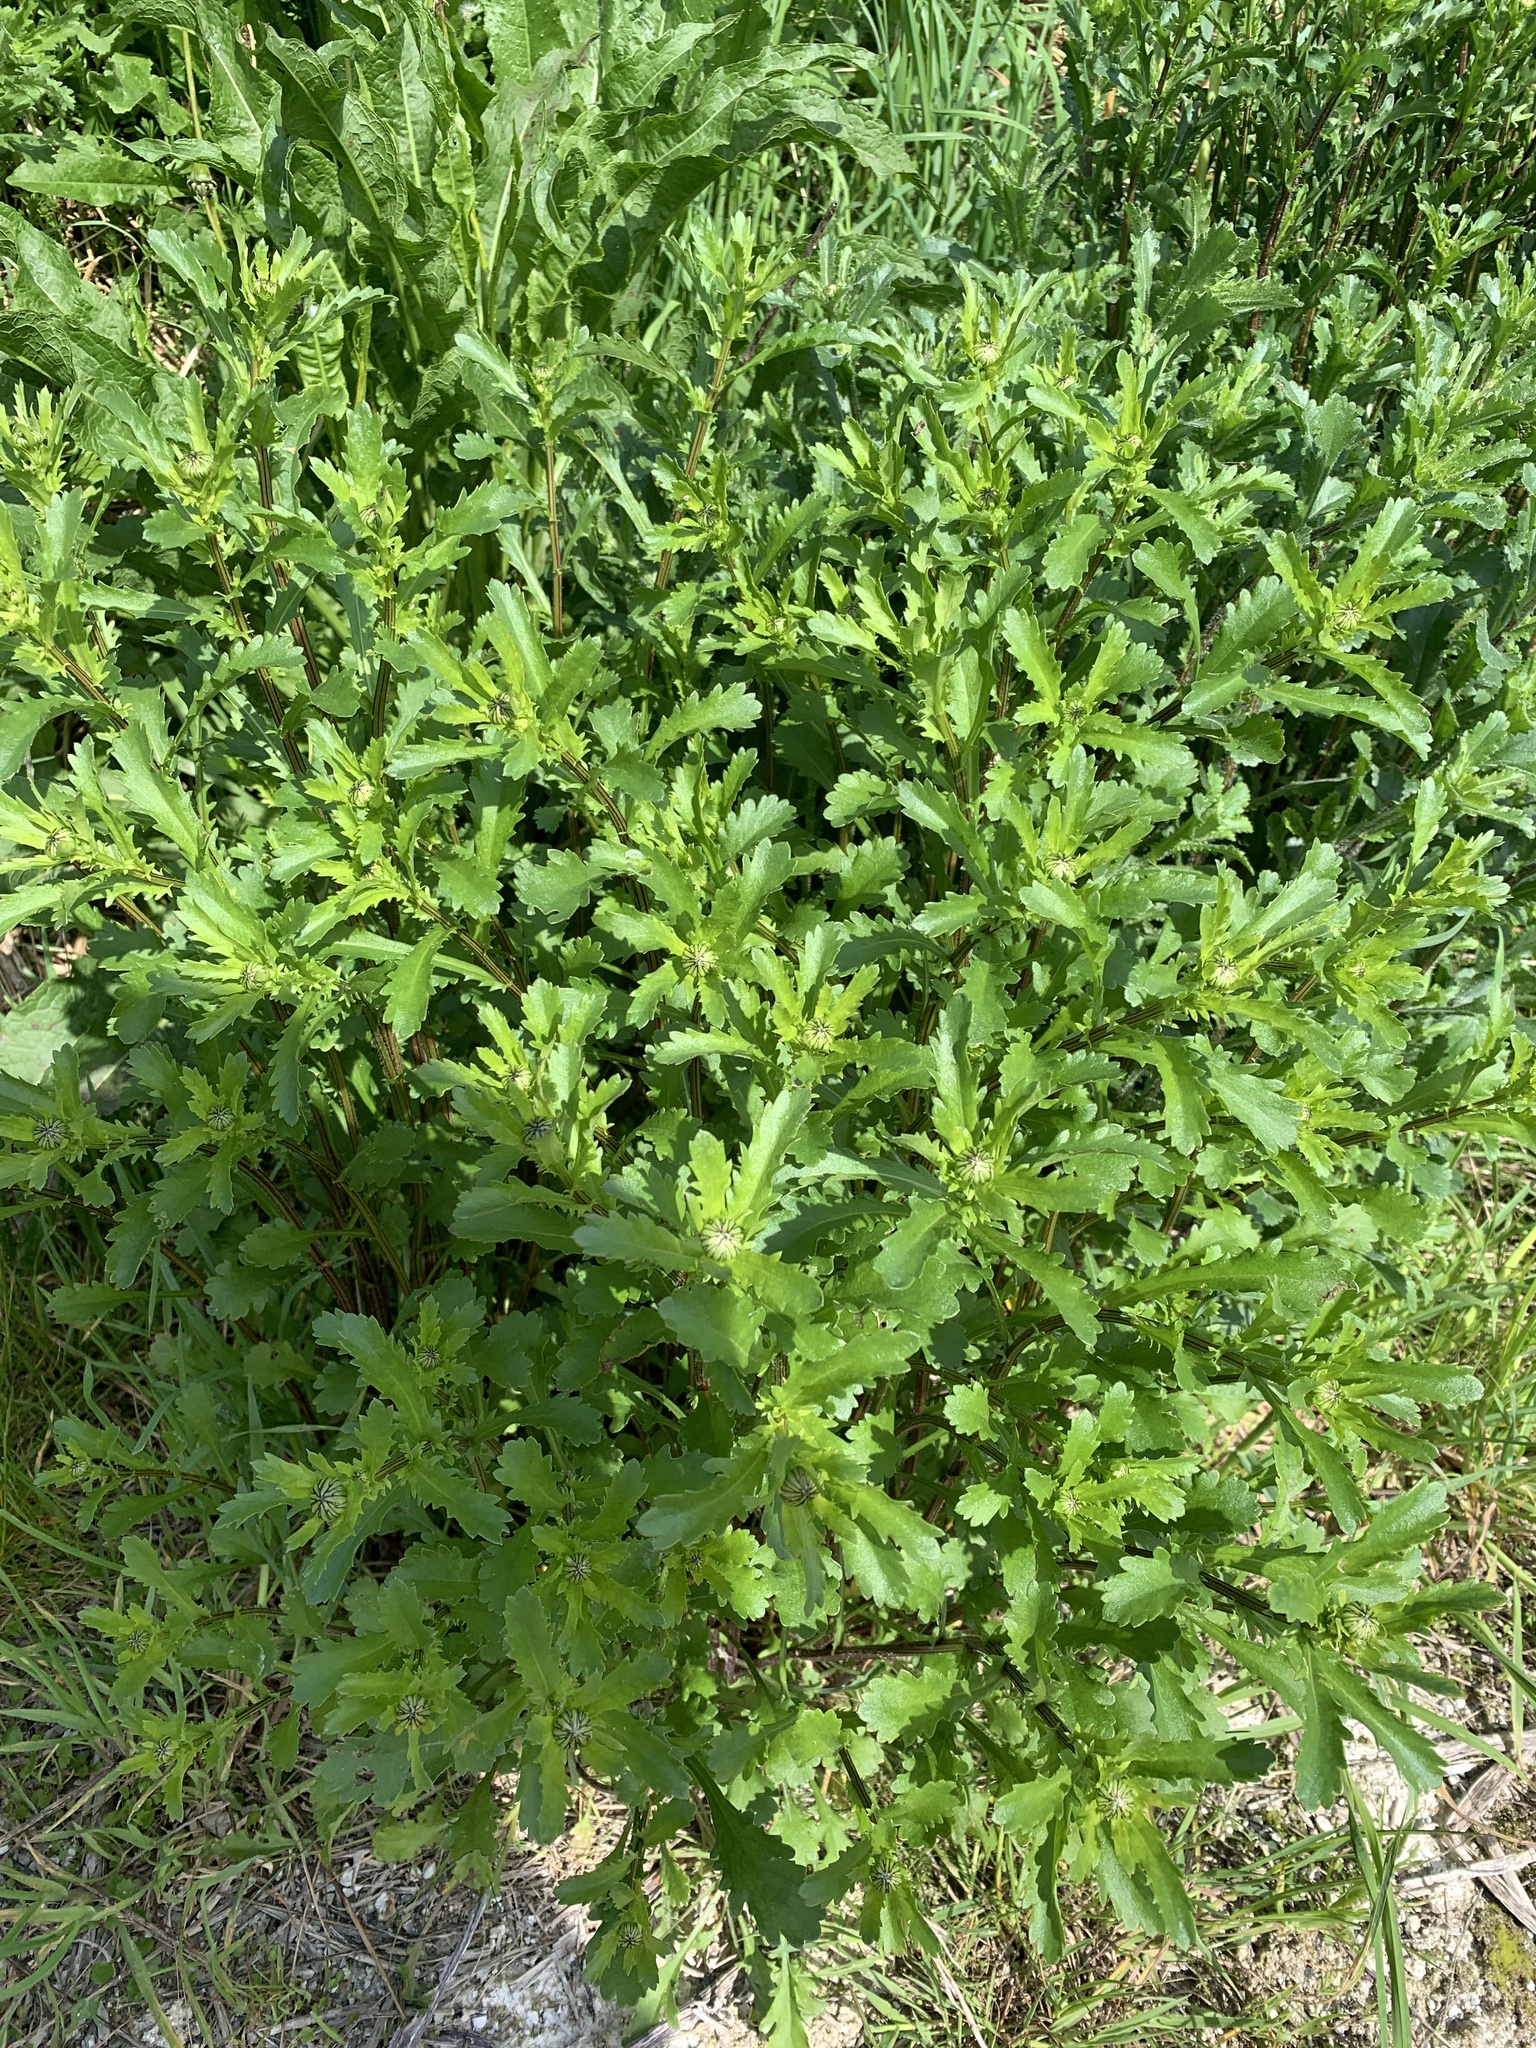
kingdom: Plantae
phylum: Tracheophyta
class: Magnoliopsida
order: Asterales
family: Asteraceae
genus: Leucanthemum
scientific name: Leucanthemum vulgare
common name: Oxeye daisy
